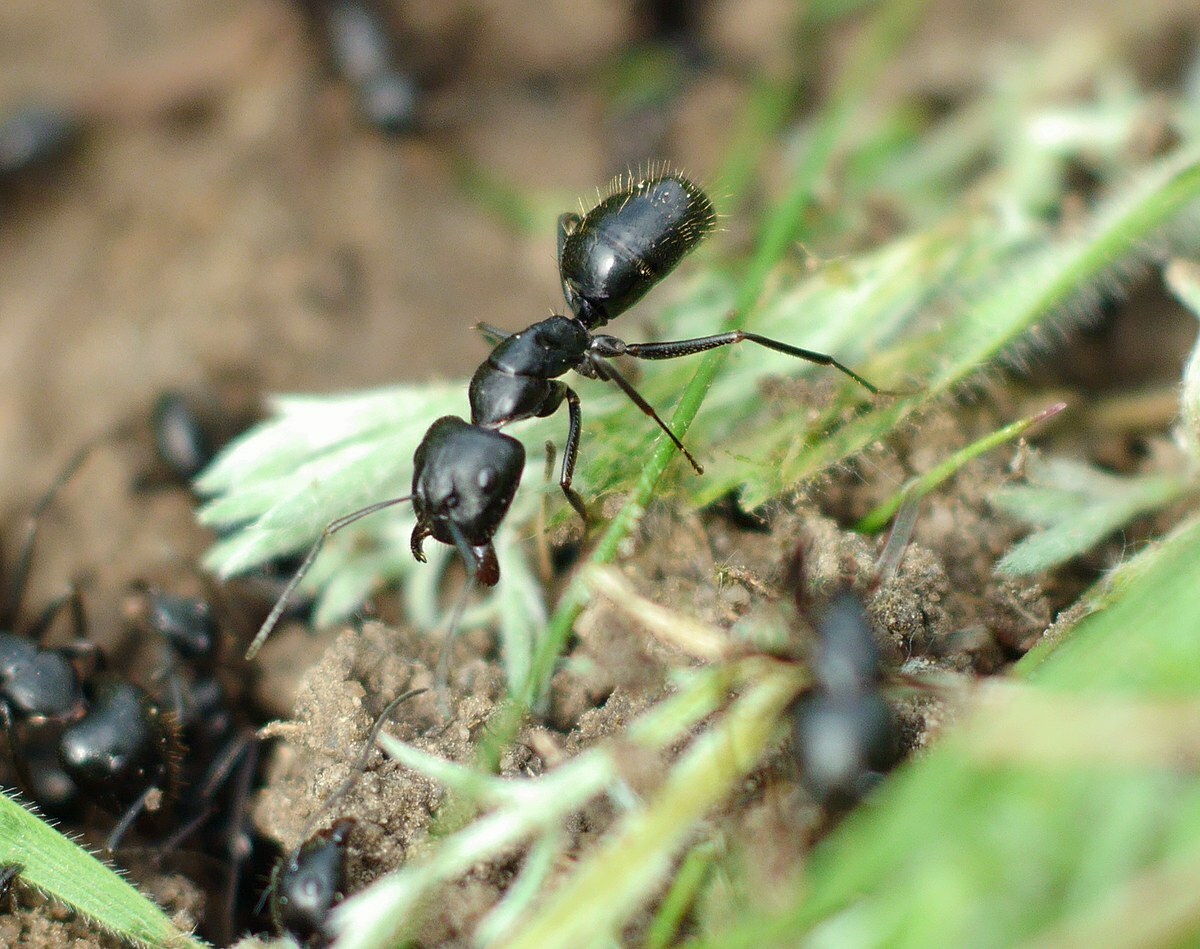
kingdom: Animalia
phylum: Arthropoda
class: Insecta
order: Hymenoptera
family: Formicidae
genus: Camponotus
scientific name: Camponotus aethiops
